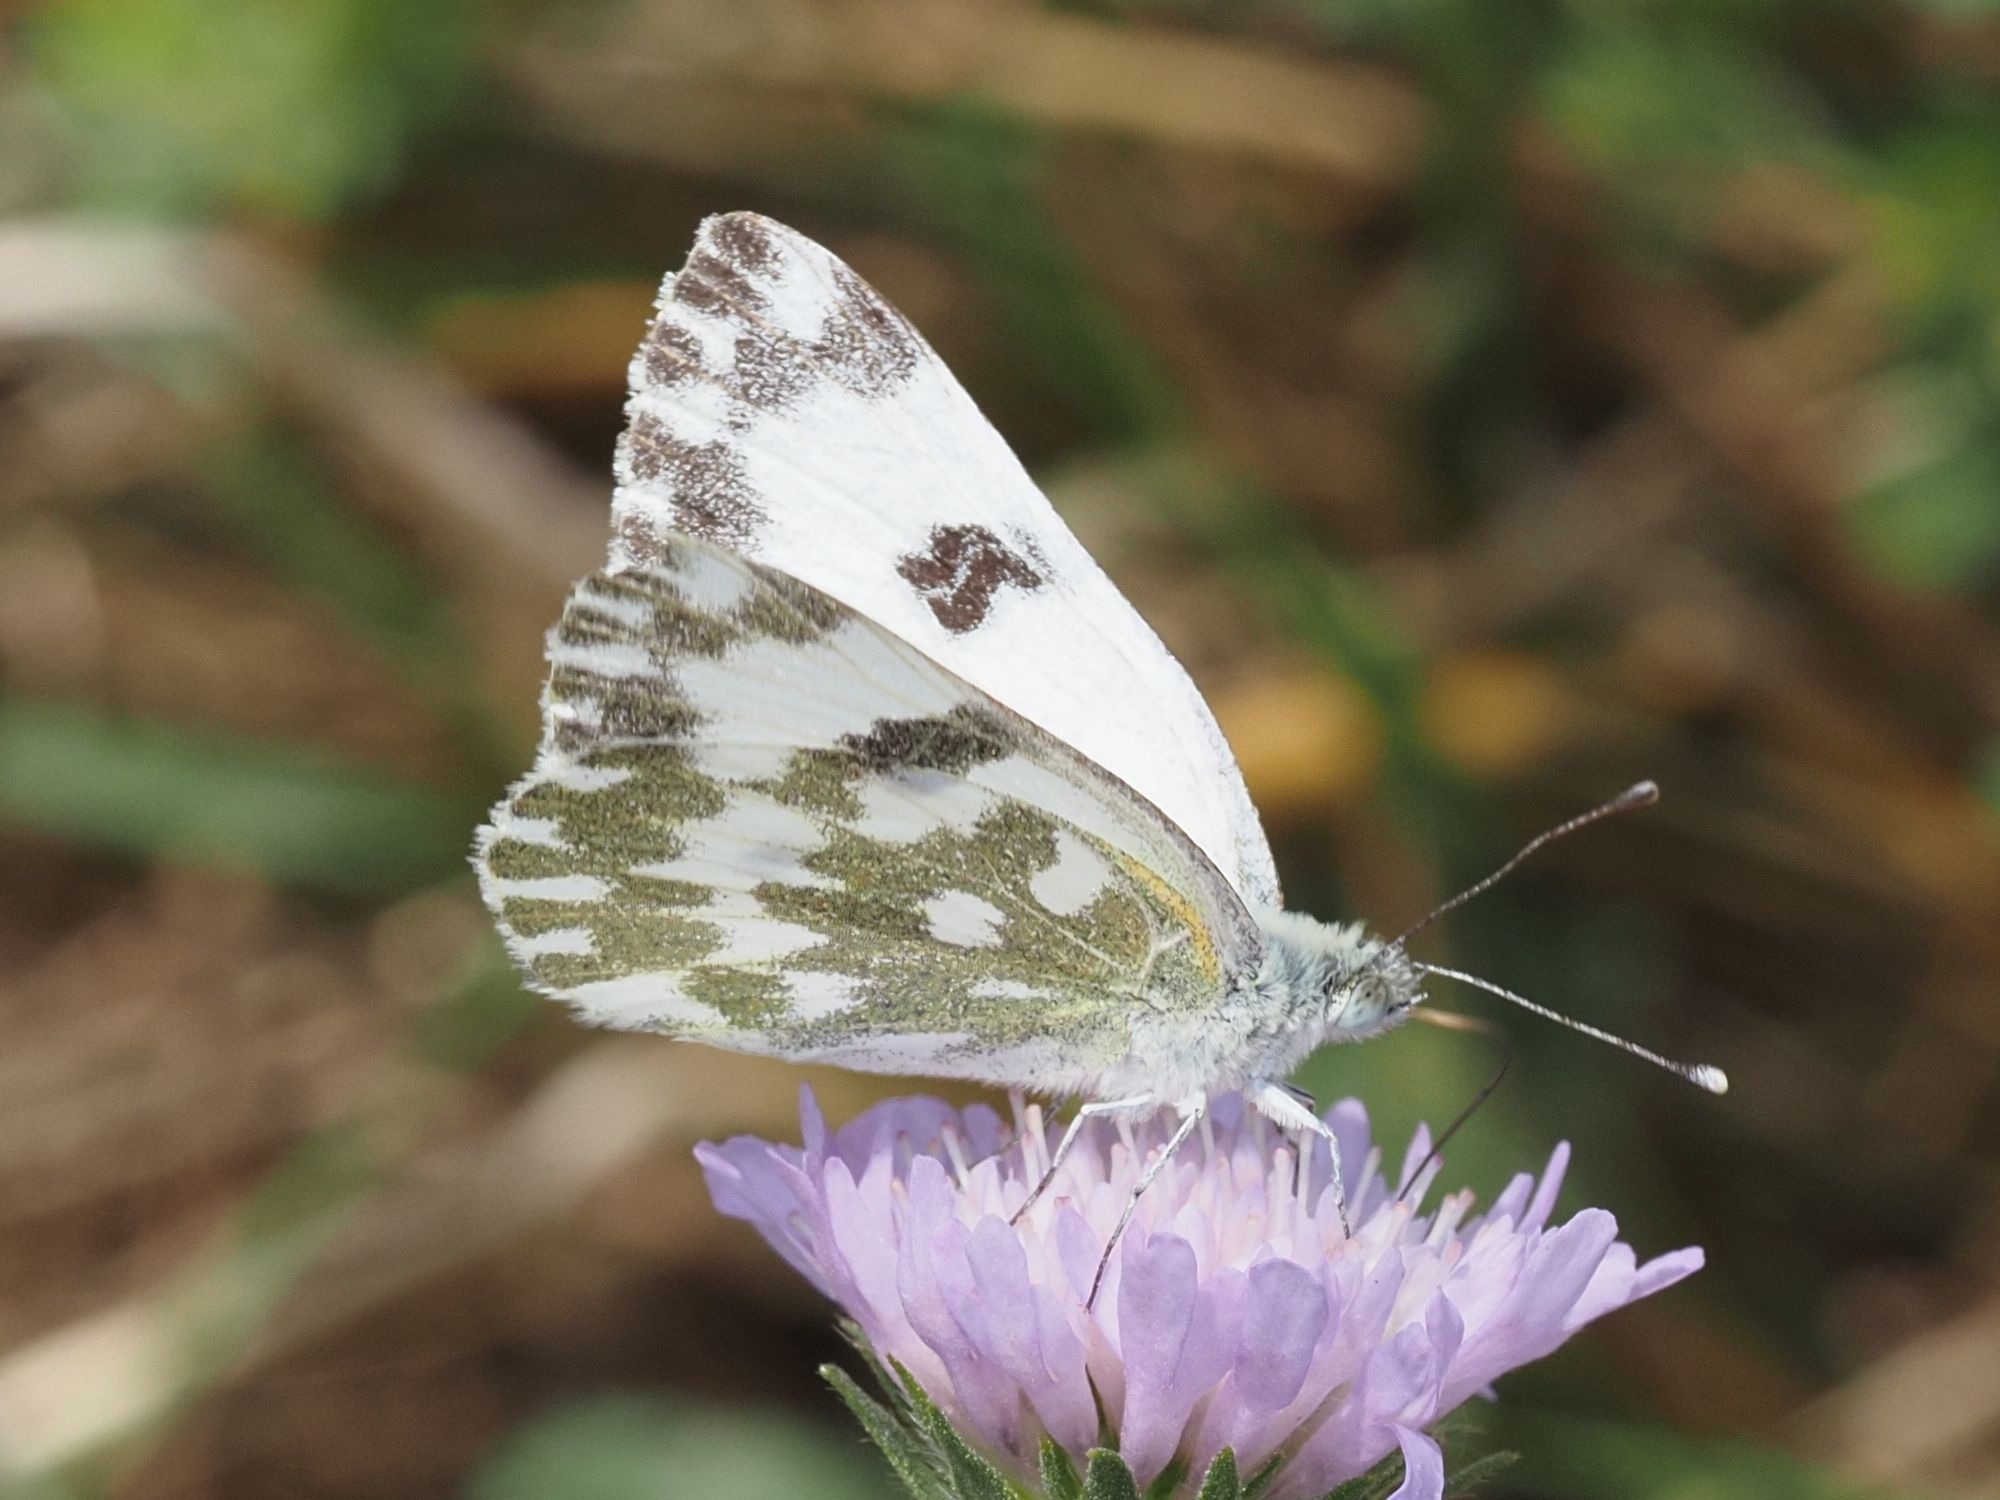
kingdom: Animalia
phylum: Arthropoda
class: Insecta
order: Lepidoptera
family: Pieridae
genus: Pontia
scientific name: Pontia edusa
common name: Eastern bath white
